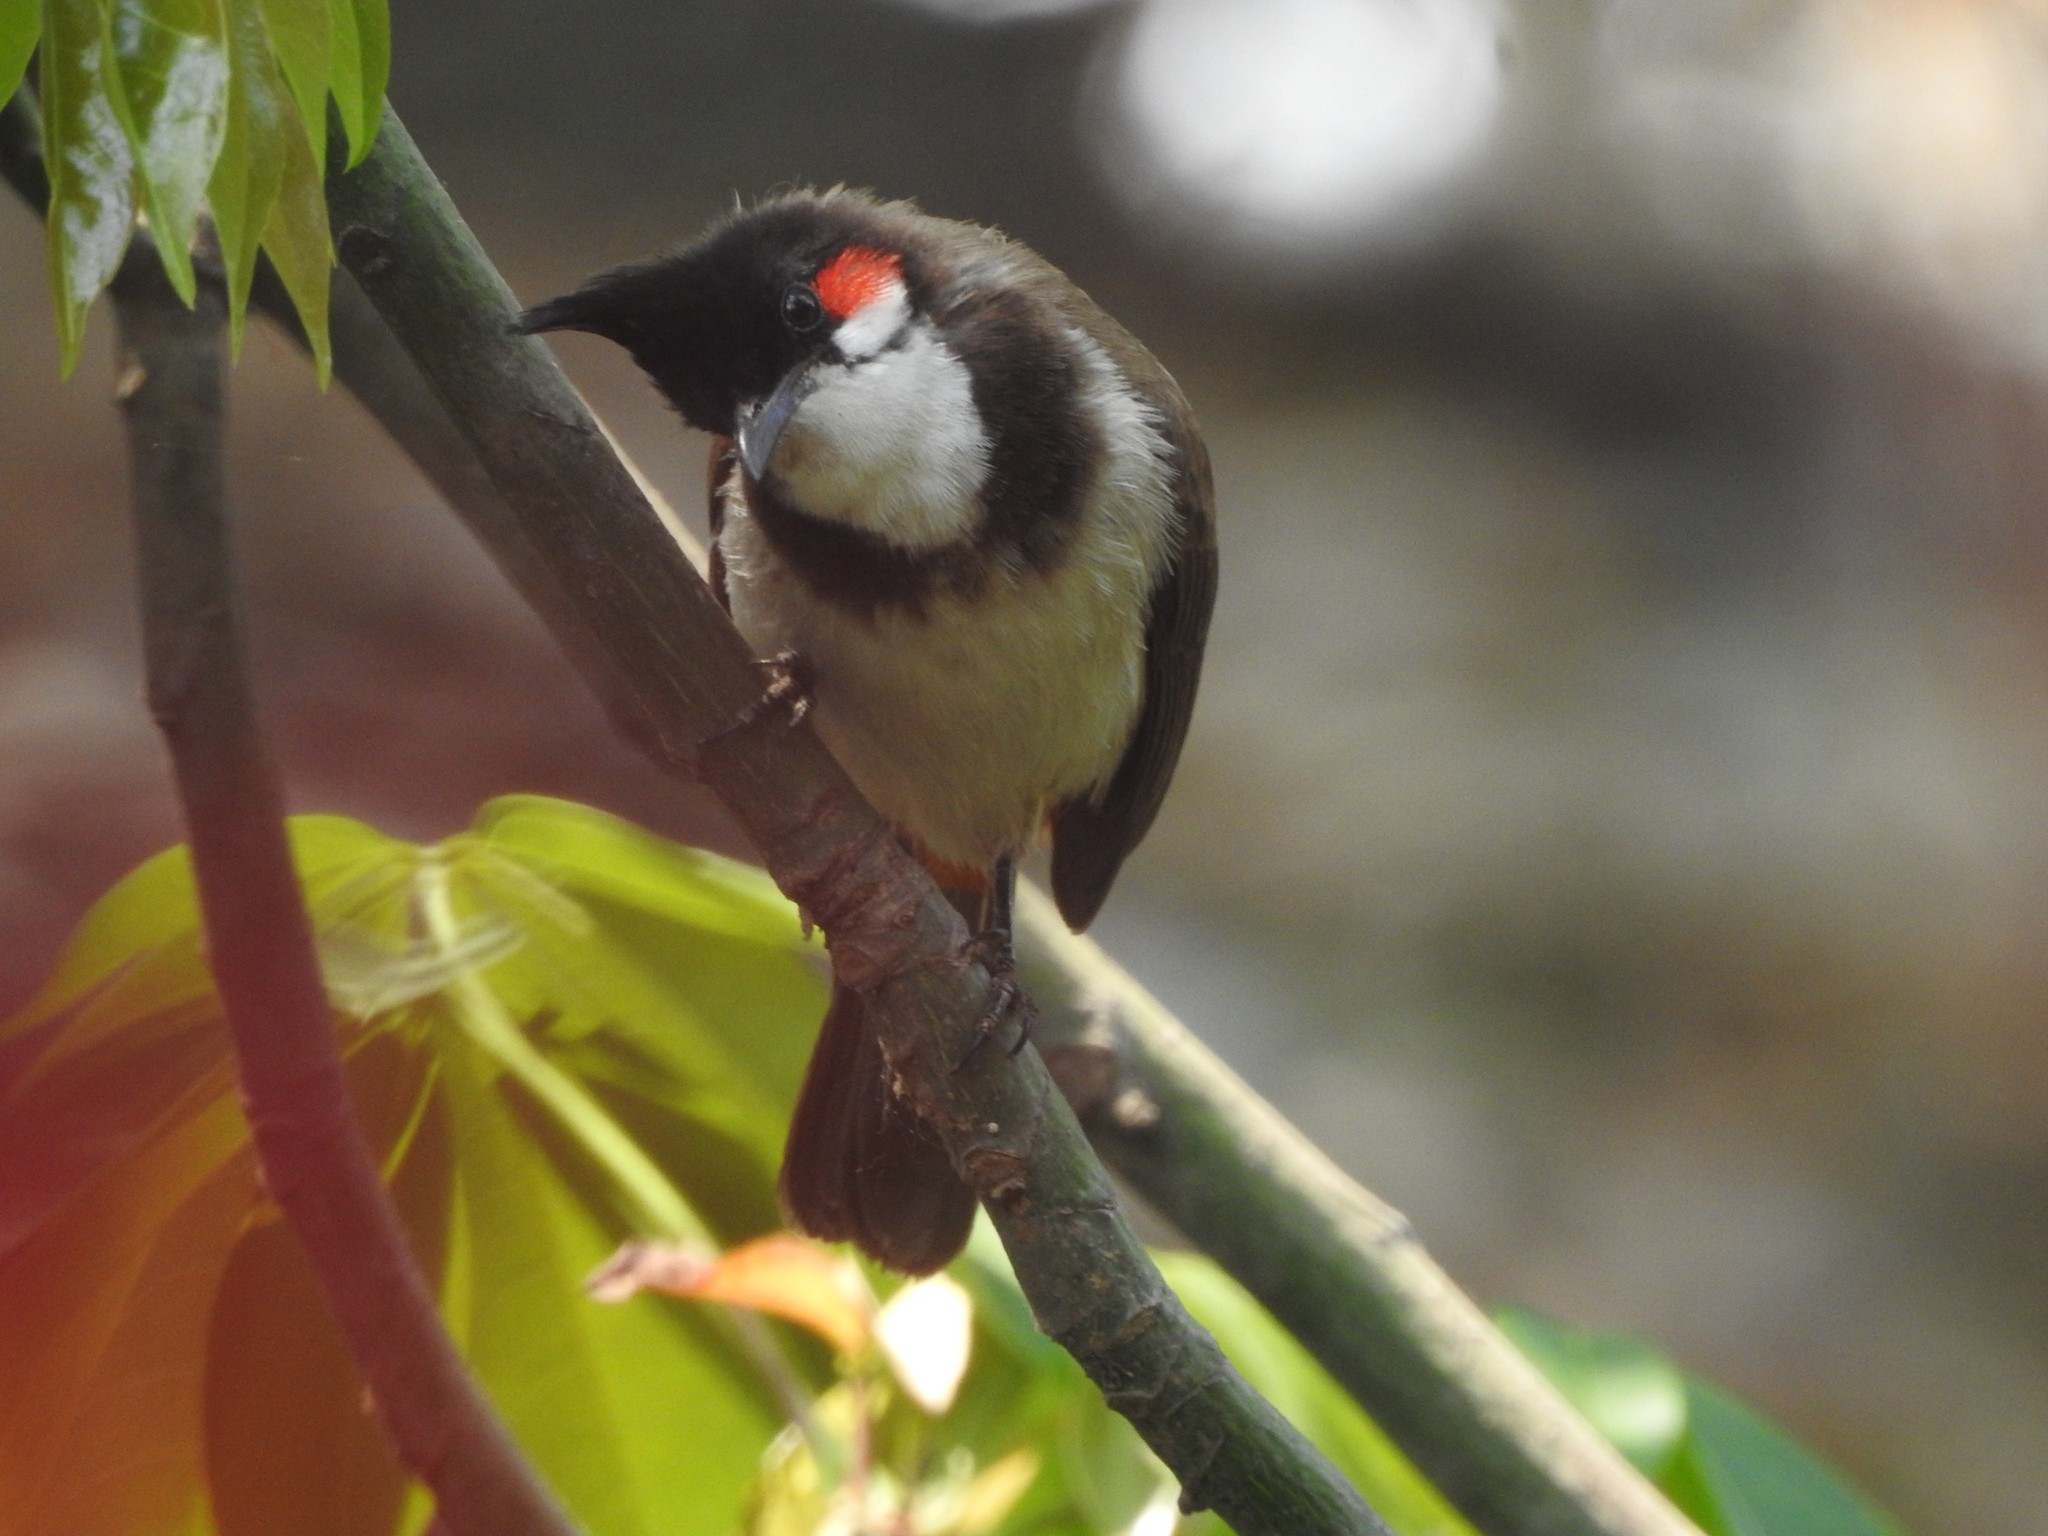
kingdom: Animalia
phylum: Chordata
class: Aves
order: Passeriformes
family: Pycnonotidae
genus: Pycnonotus
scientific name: Pycnonotus jocosus
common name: Red-whiskered bulbul
